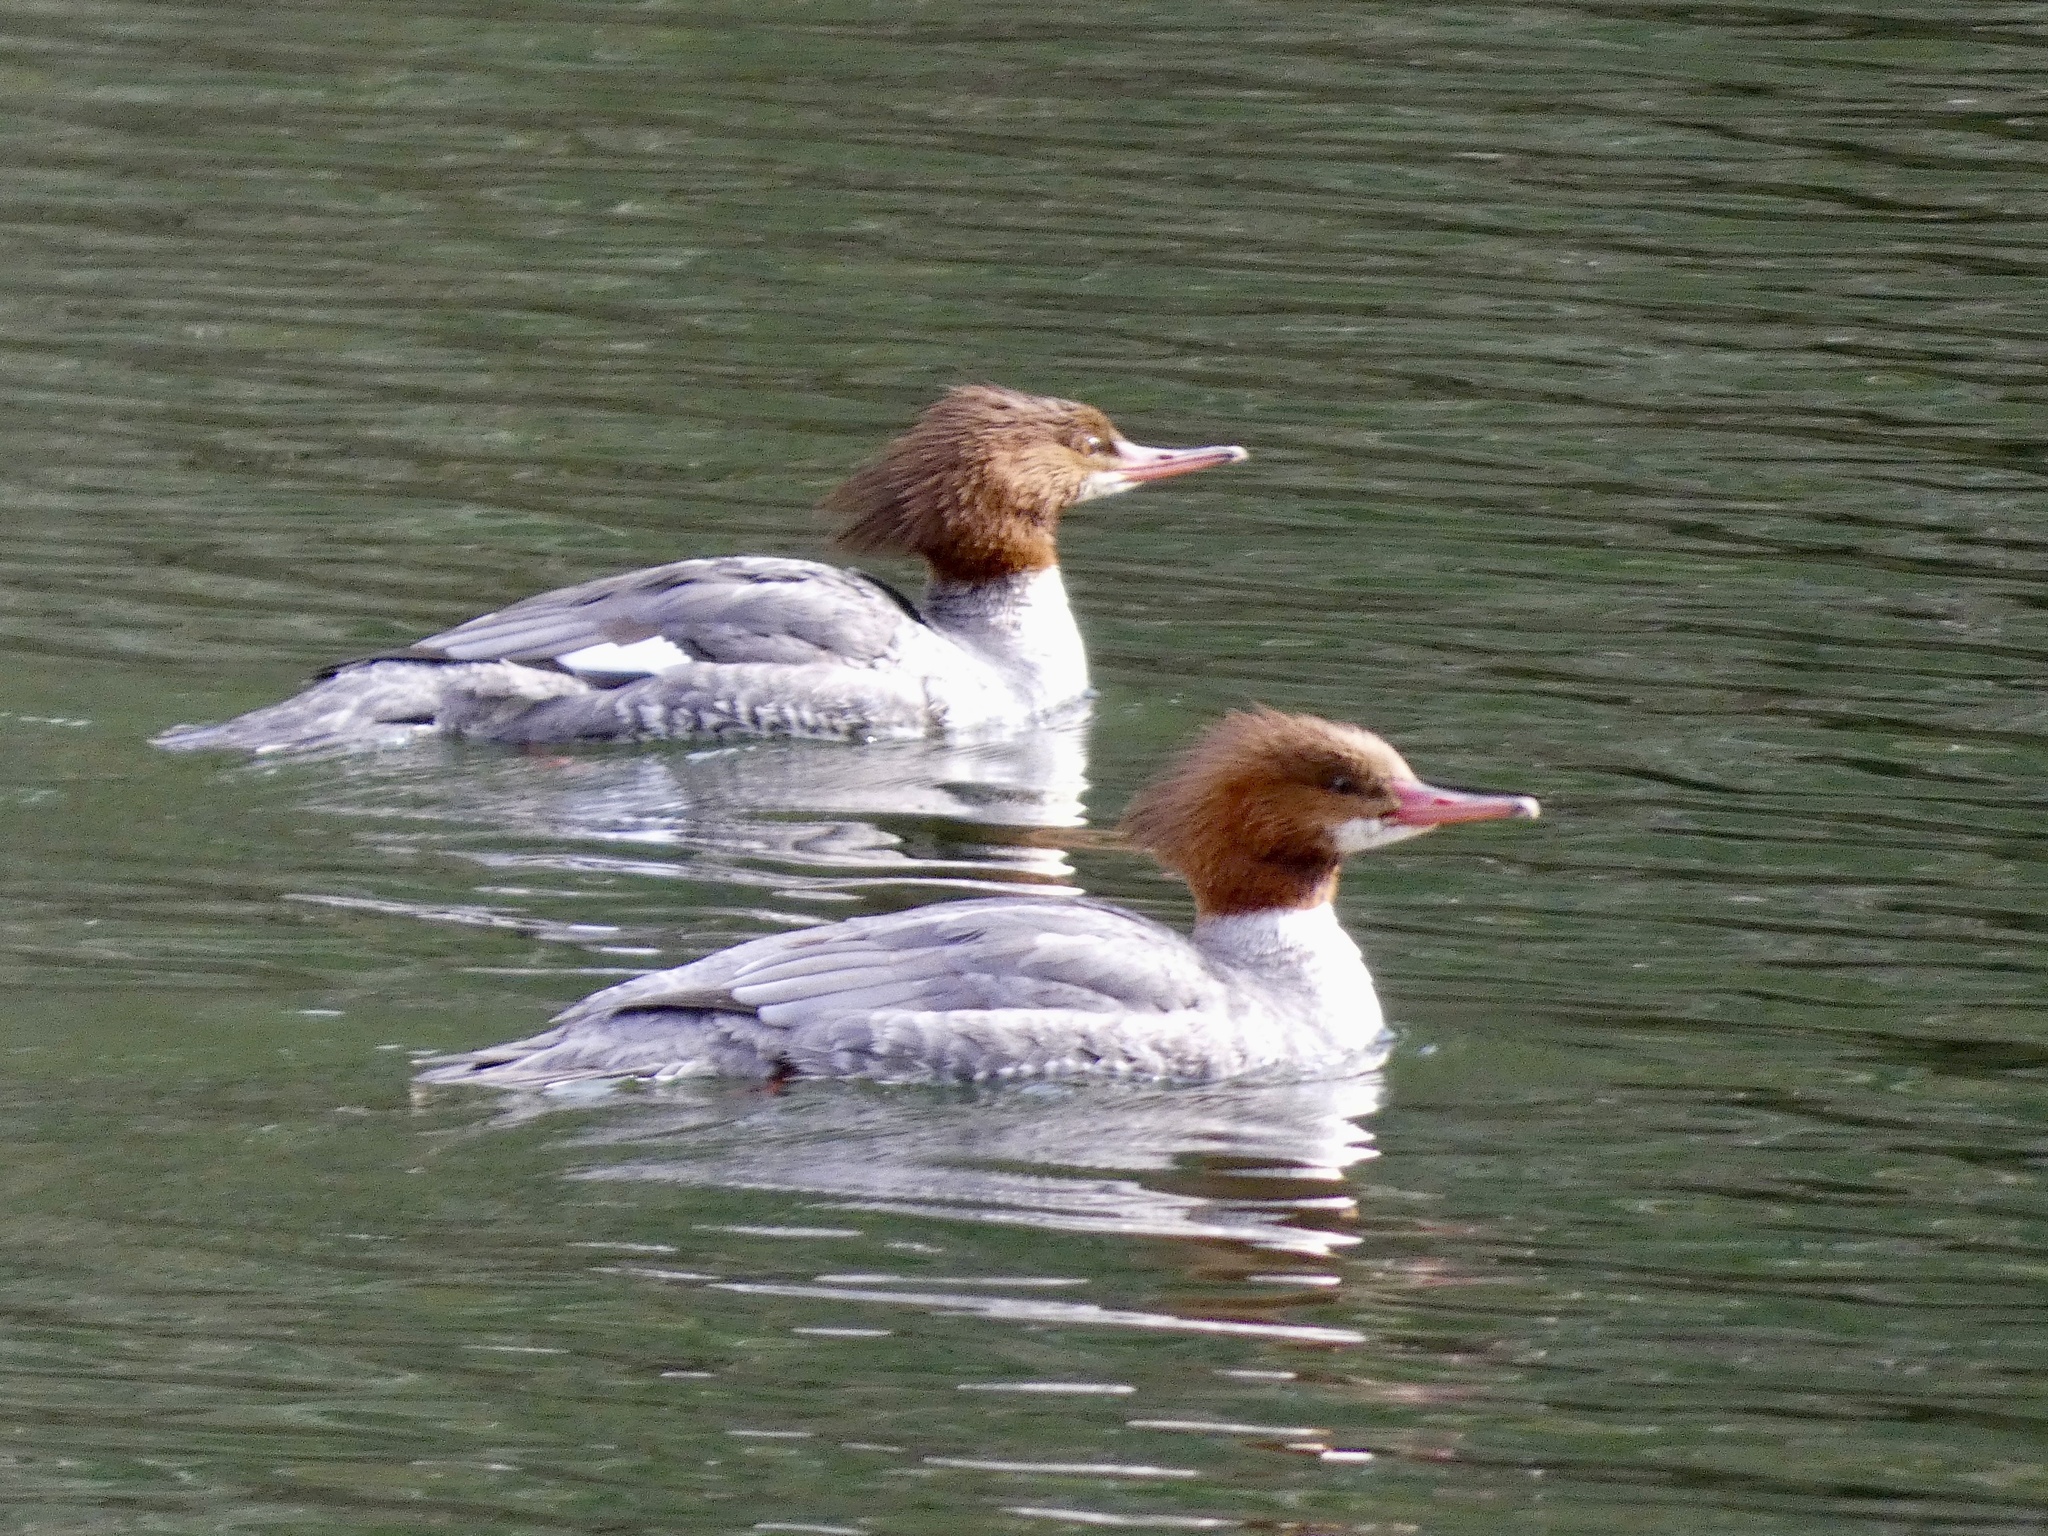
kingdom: Animalia
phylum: Chordata
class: Aves
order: Anseriformes
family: Anatidae
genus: Mergus
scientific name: Mergus merganser
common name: Common merganser
